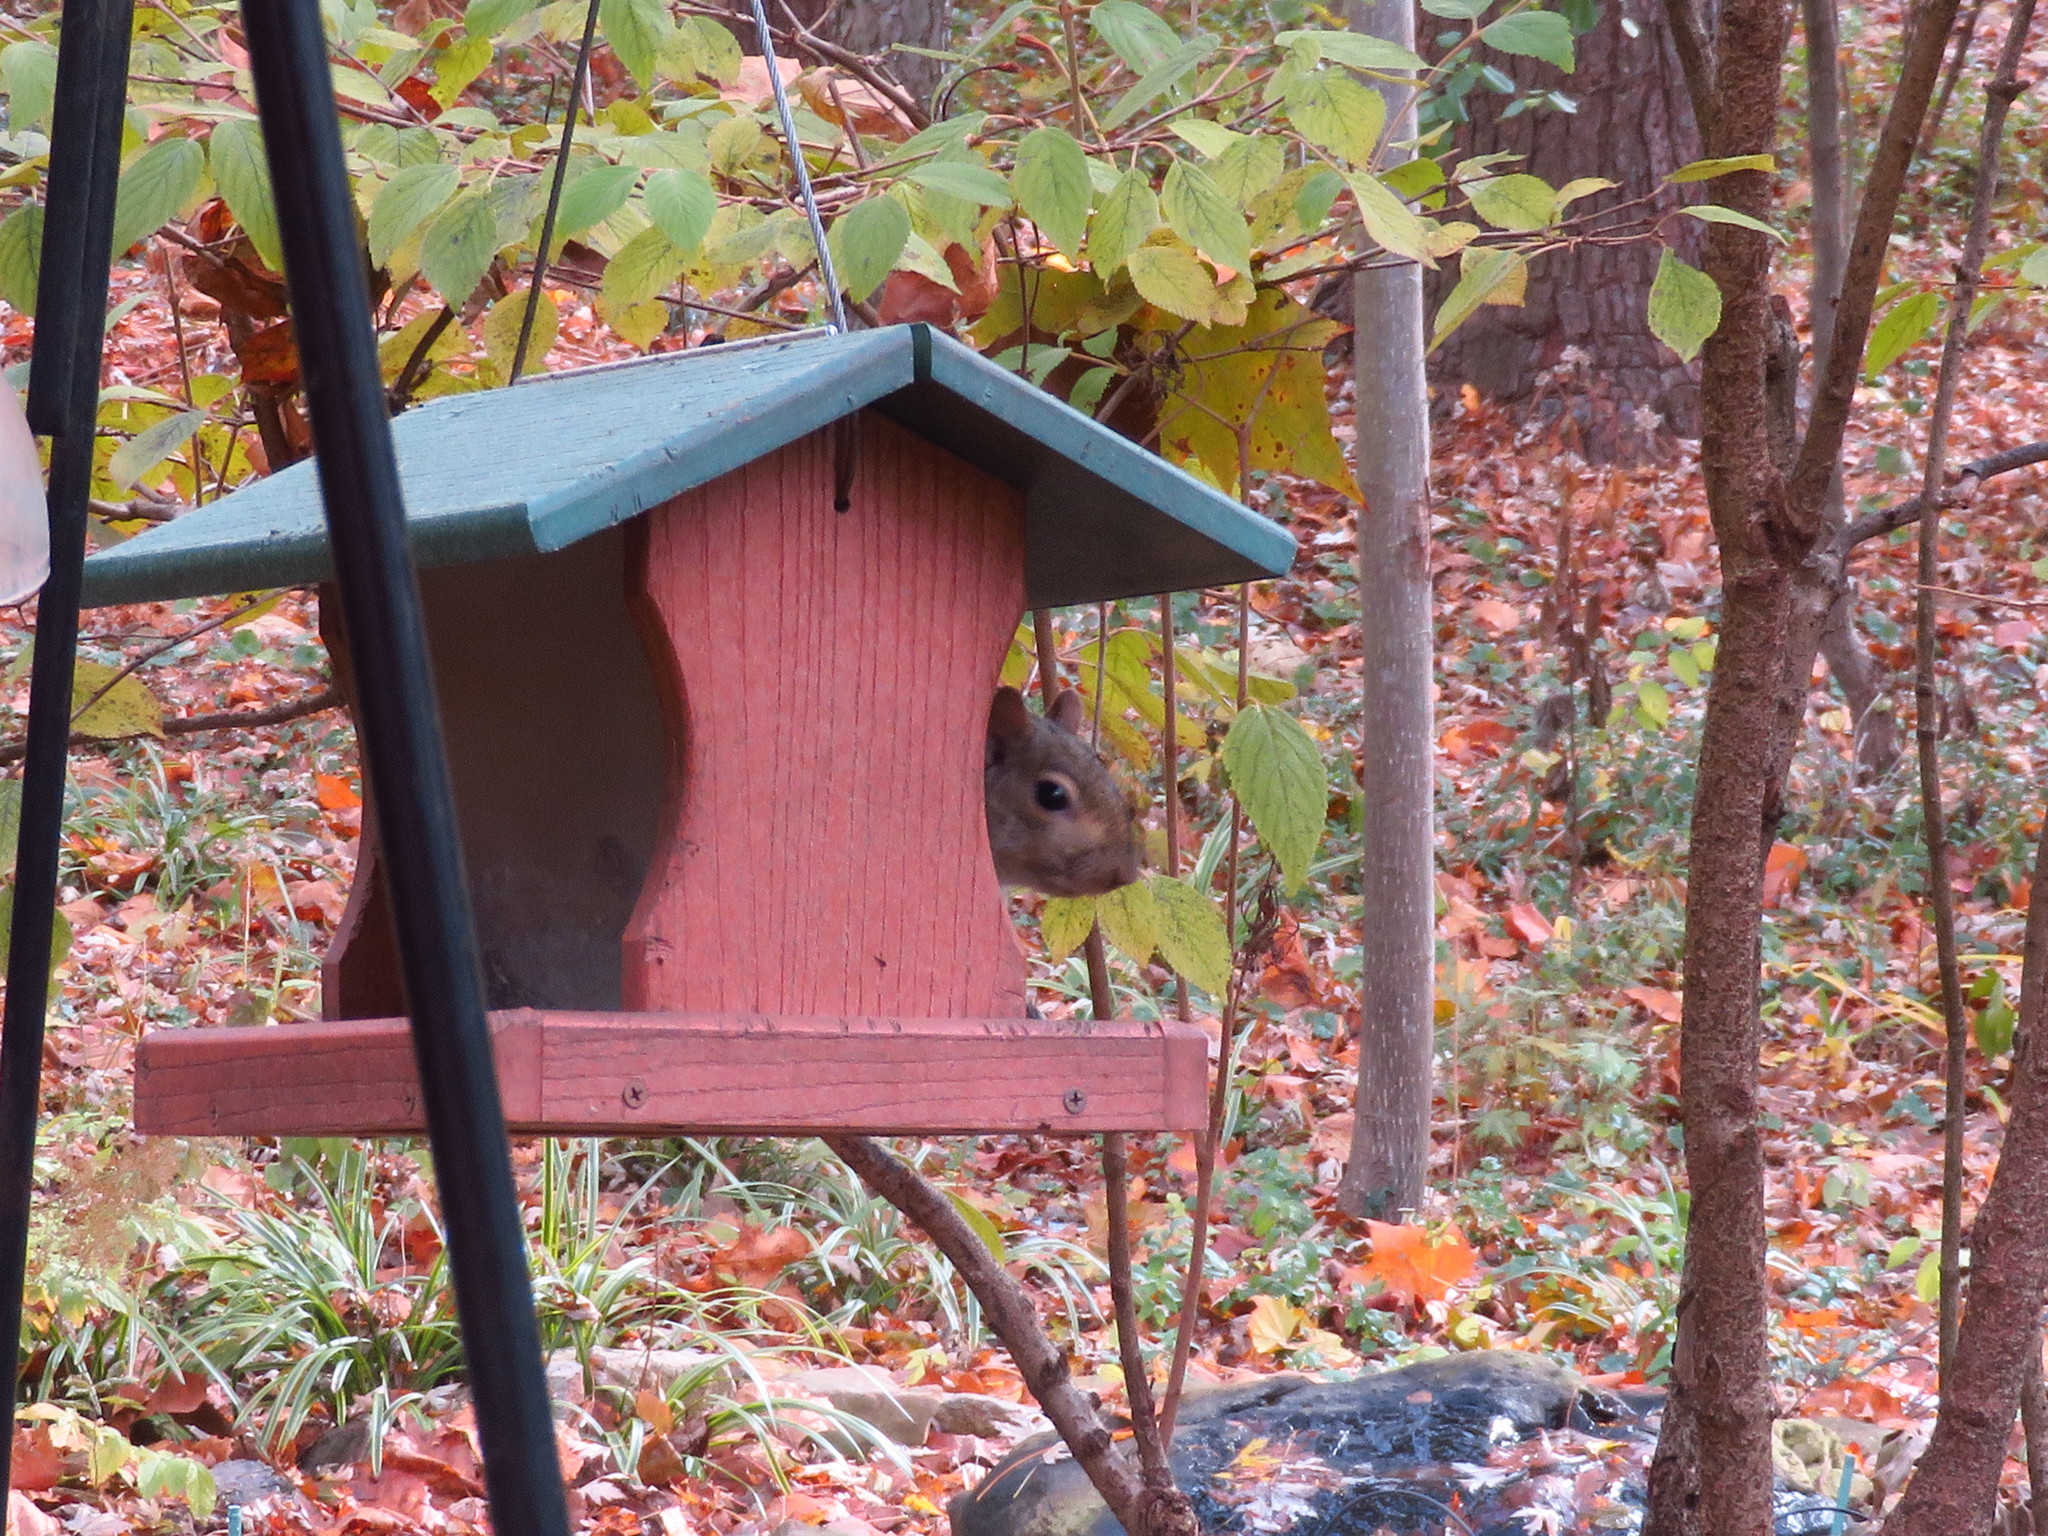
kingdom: Animalia
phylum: Chordata
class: Mammalia
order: Rodentia
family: Sciuridae
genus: Sciurus
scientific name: Sciurus carolinensis
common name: Eastern gray squirrel
